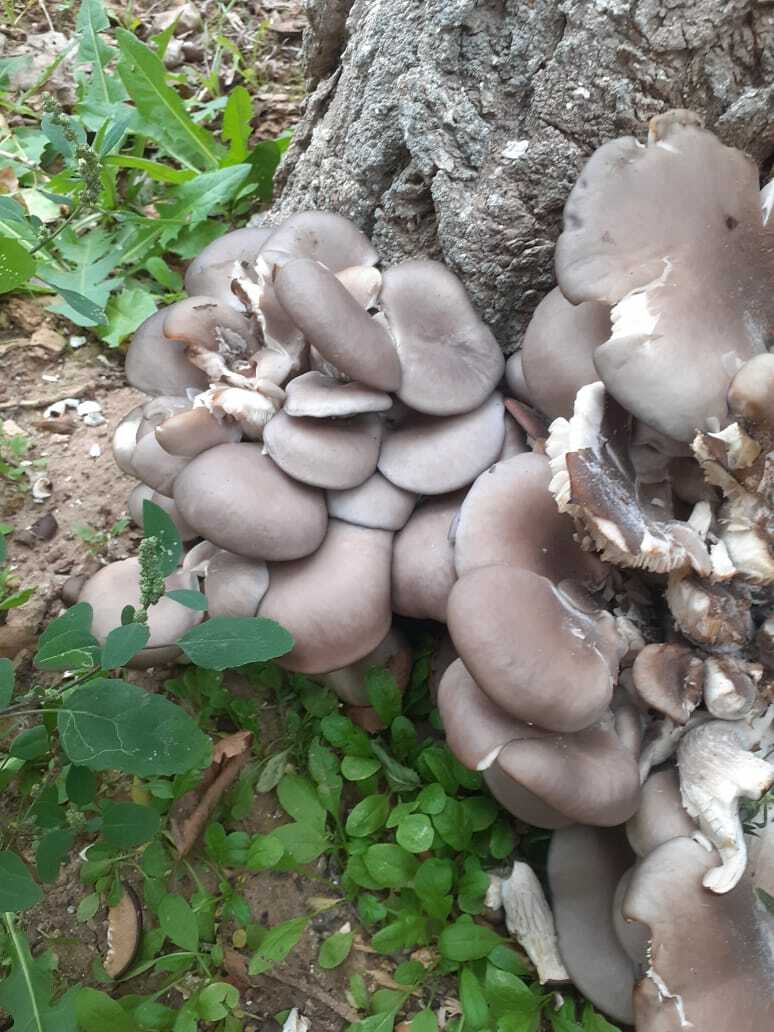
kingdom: Fungi
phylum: Basidiomycota
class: Agaricomycetes
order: Agaricales
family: Pleurotaceae
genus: Pleurotus
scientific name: Pleurotus ostreatus
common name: Oyster mushroom
